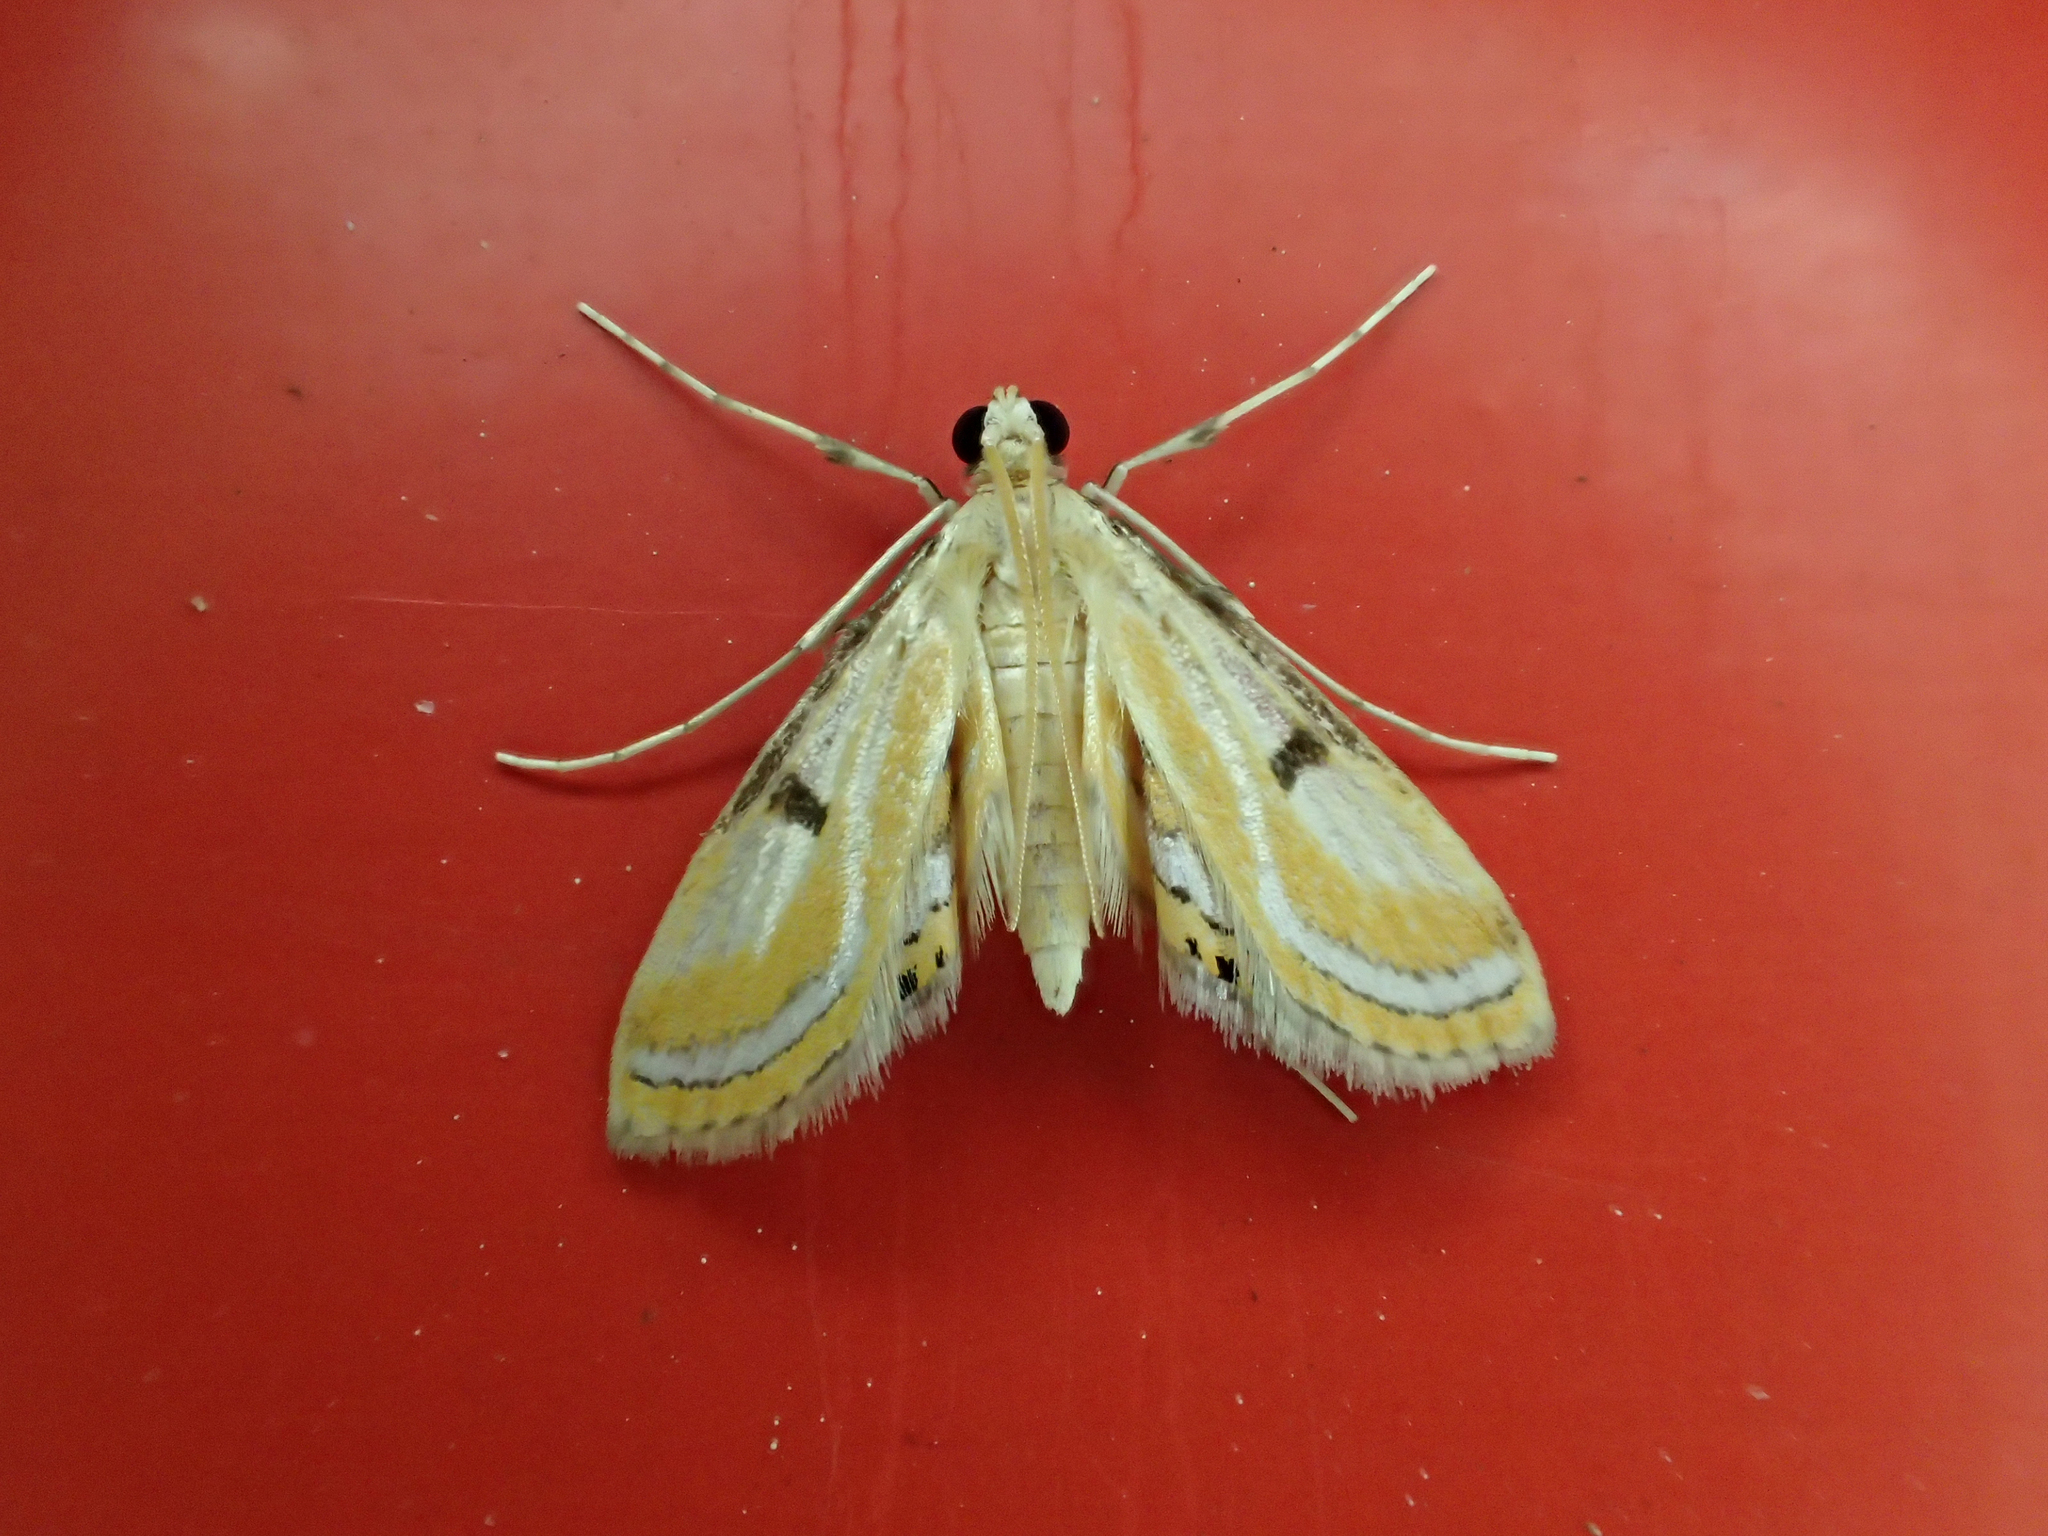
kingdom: Animalia
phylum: Arthropoda
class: Insecta
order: Lepidoptera
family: Crambidae
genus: Tetrernia
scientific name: Tetrernia teminitis
